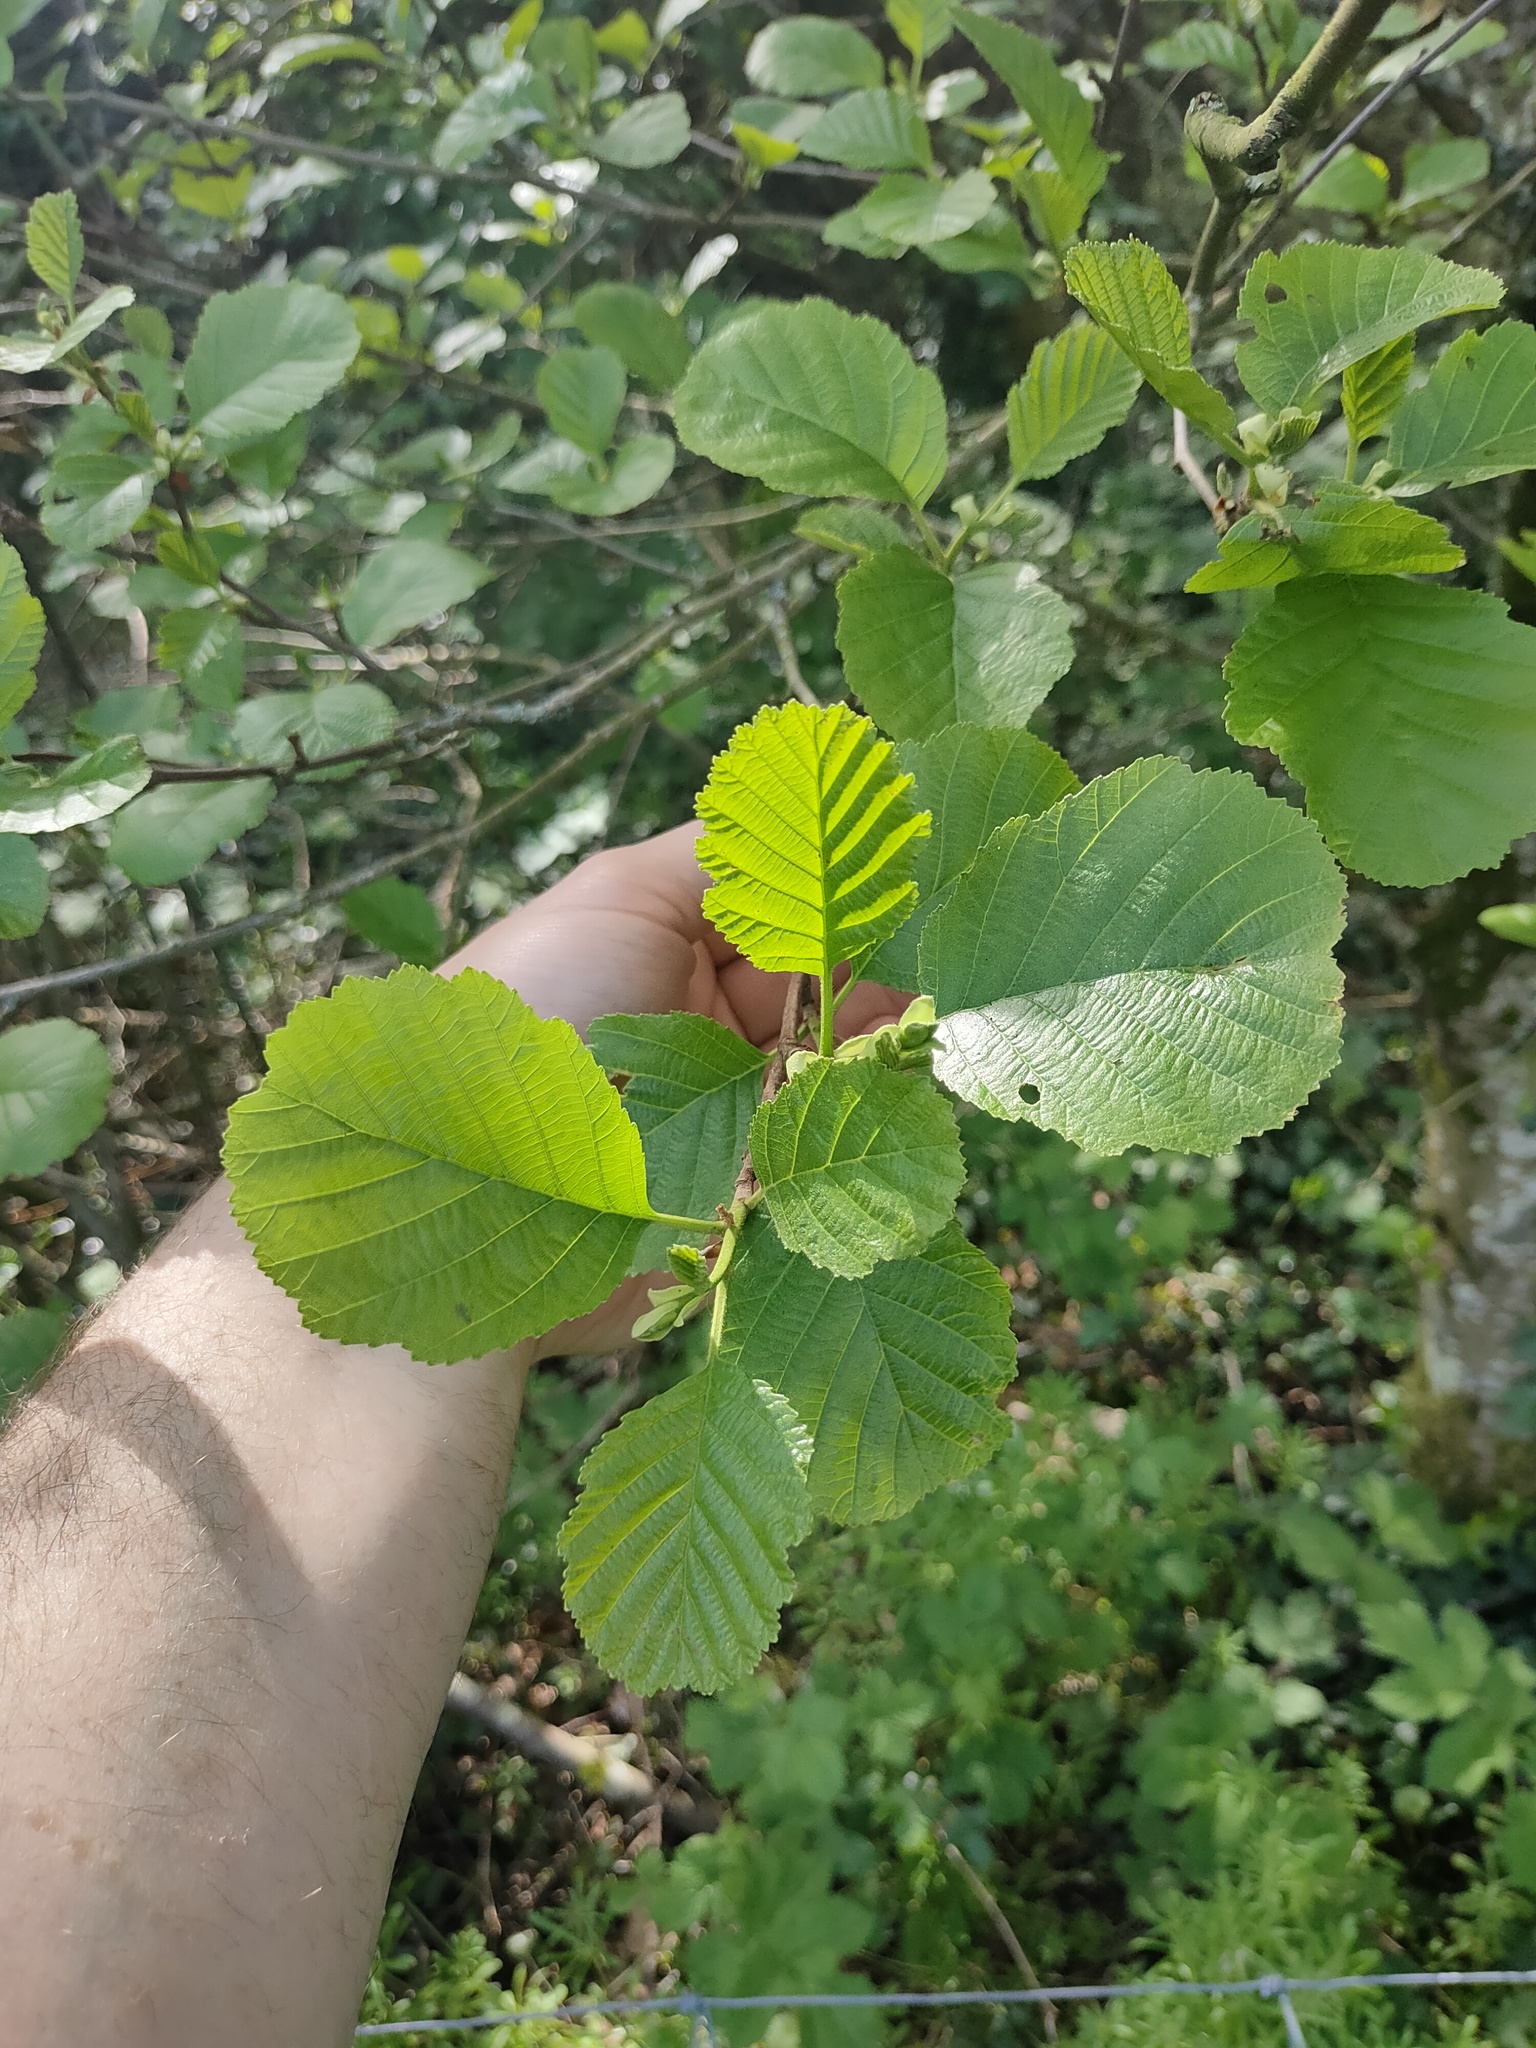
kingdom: Plantae
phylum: Tracheophyta
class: Magnoliopsida
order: Fagales
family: Betulaceae
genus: Alnus
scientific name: Alnus glutinosa
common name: Black alder
